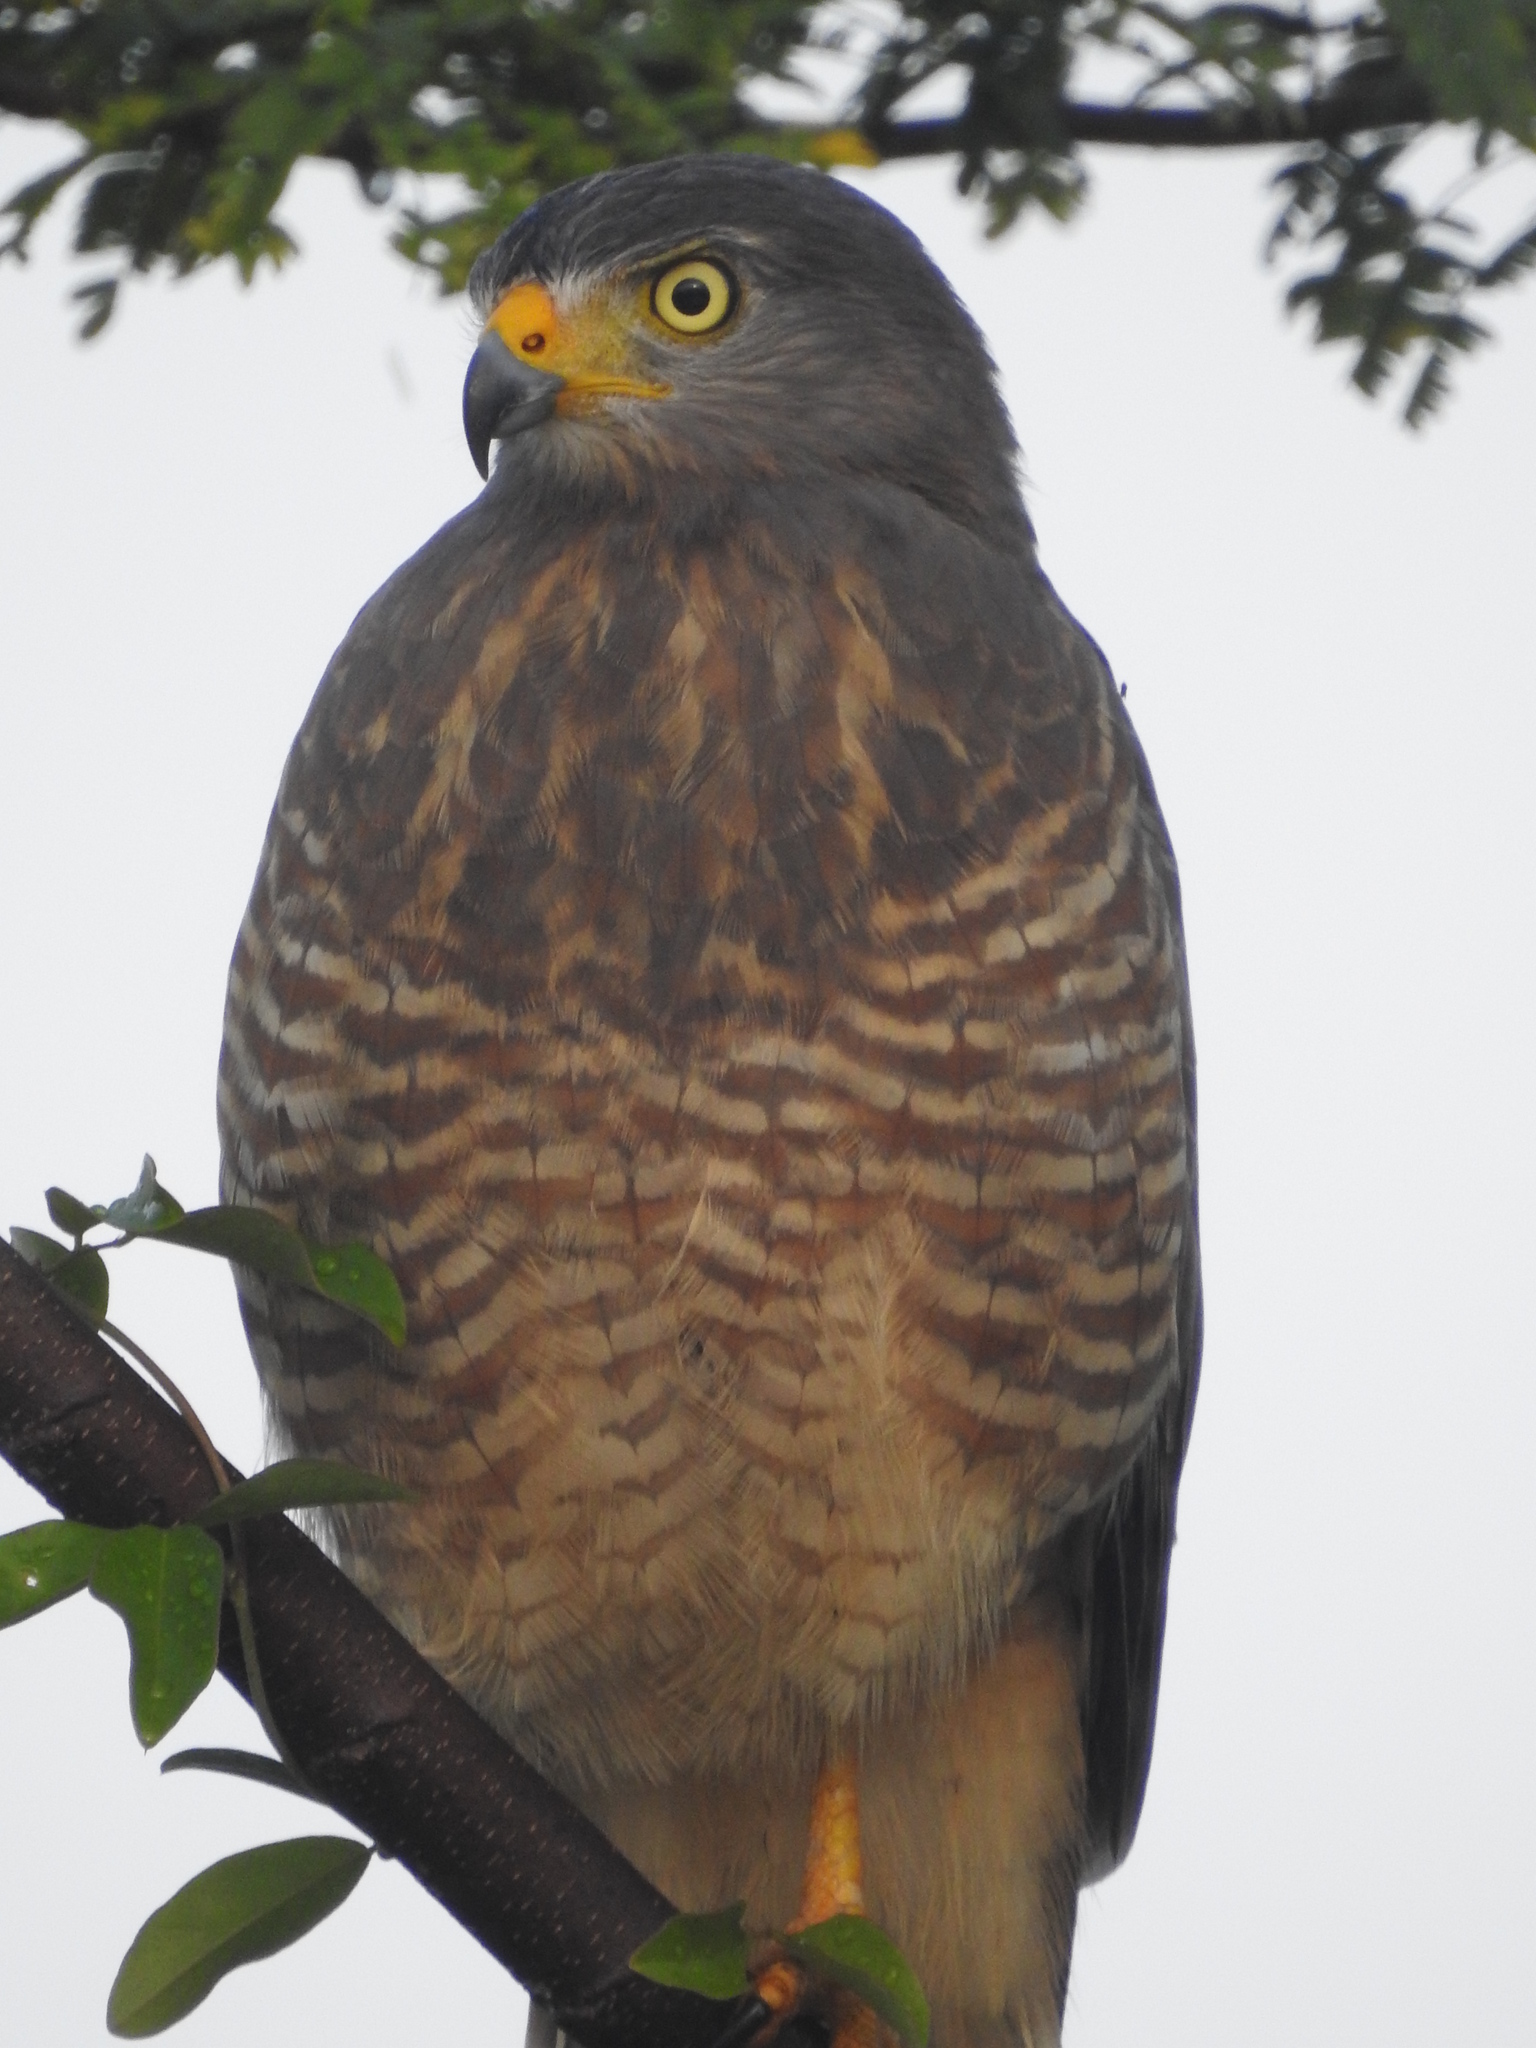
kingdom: Animalia
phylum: Chordata
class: Aves
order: Accipitriformes
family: Accipitridae
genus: Rupornis
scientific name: Rupornis magnirostris
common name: Roadside hawk
